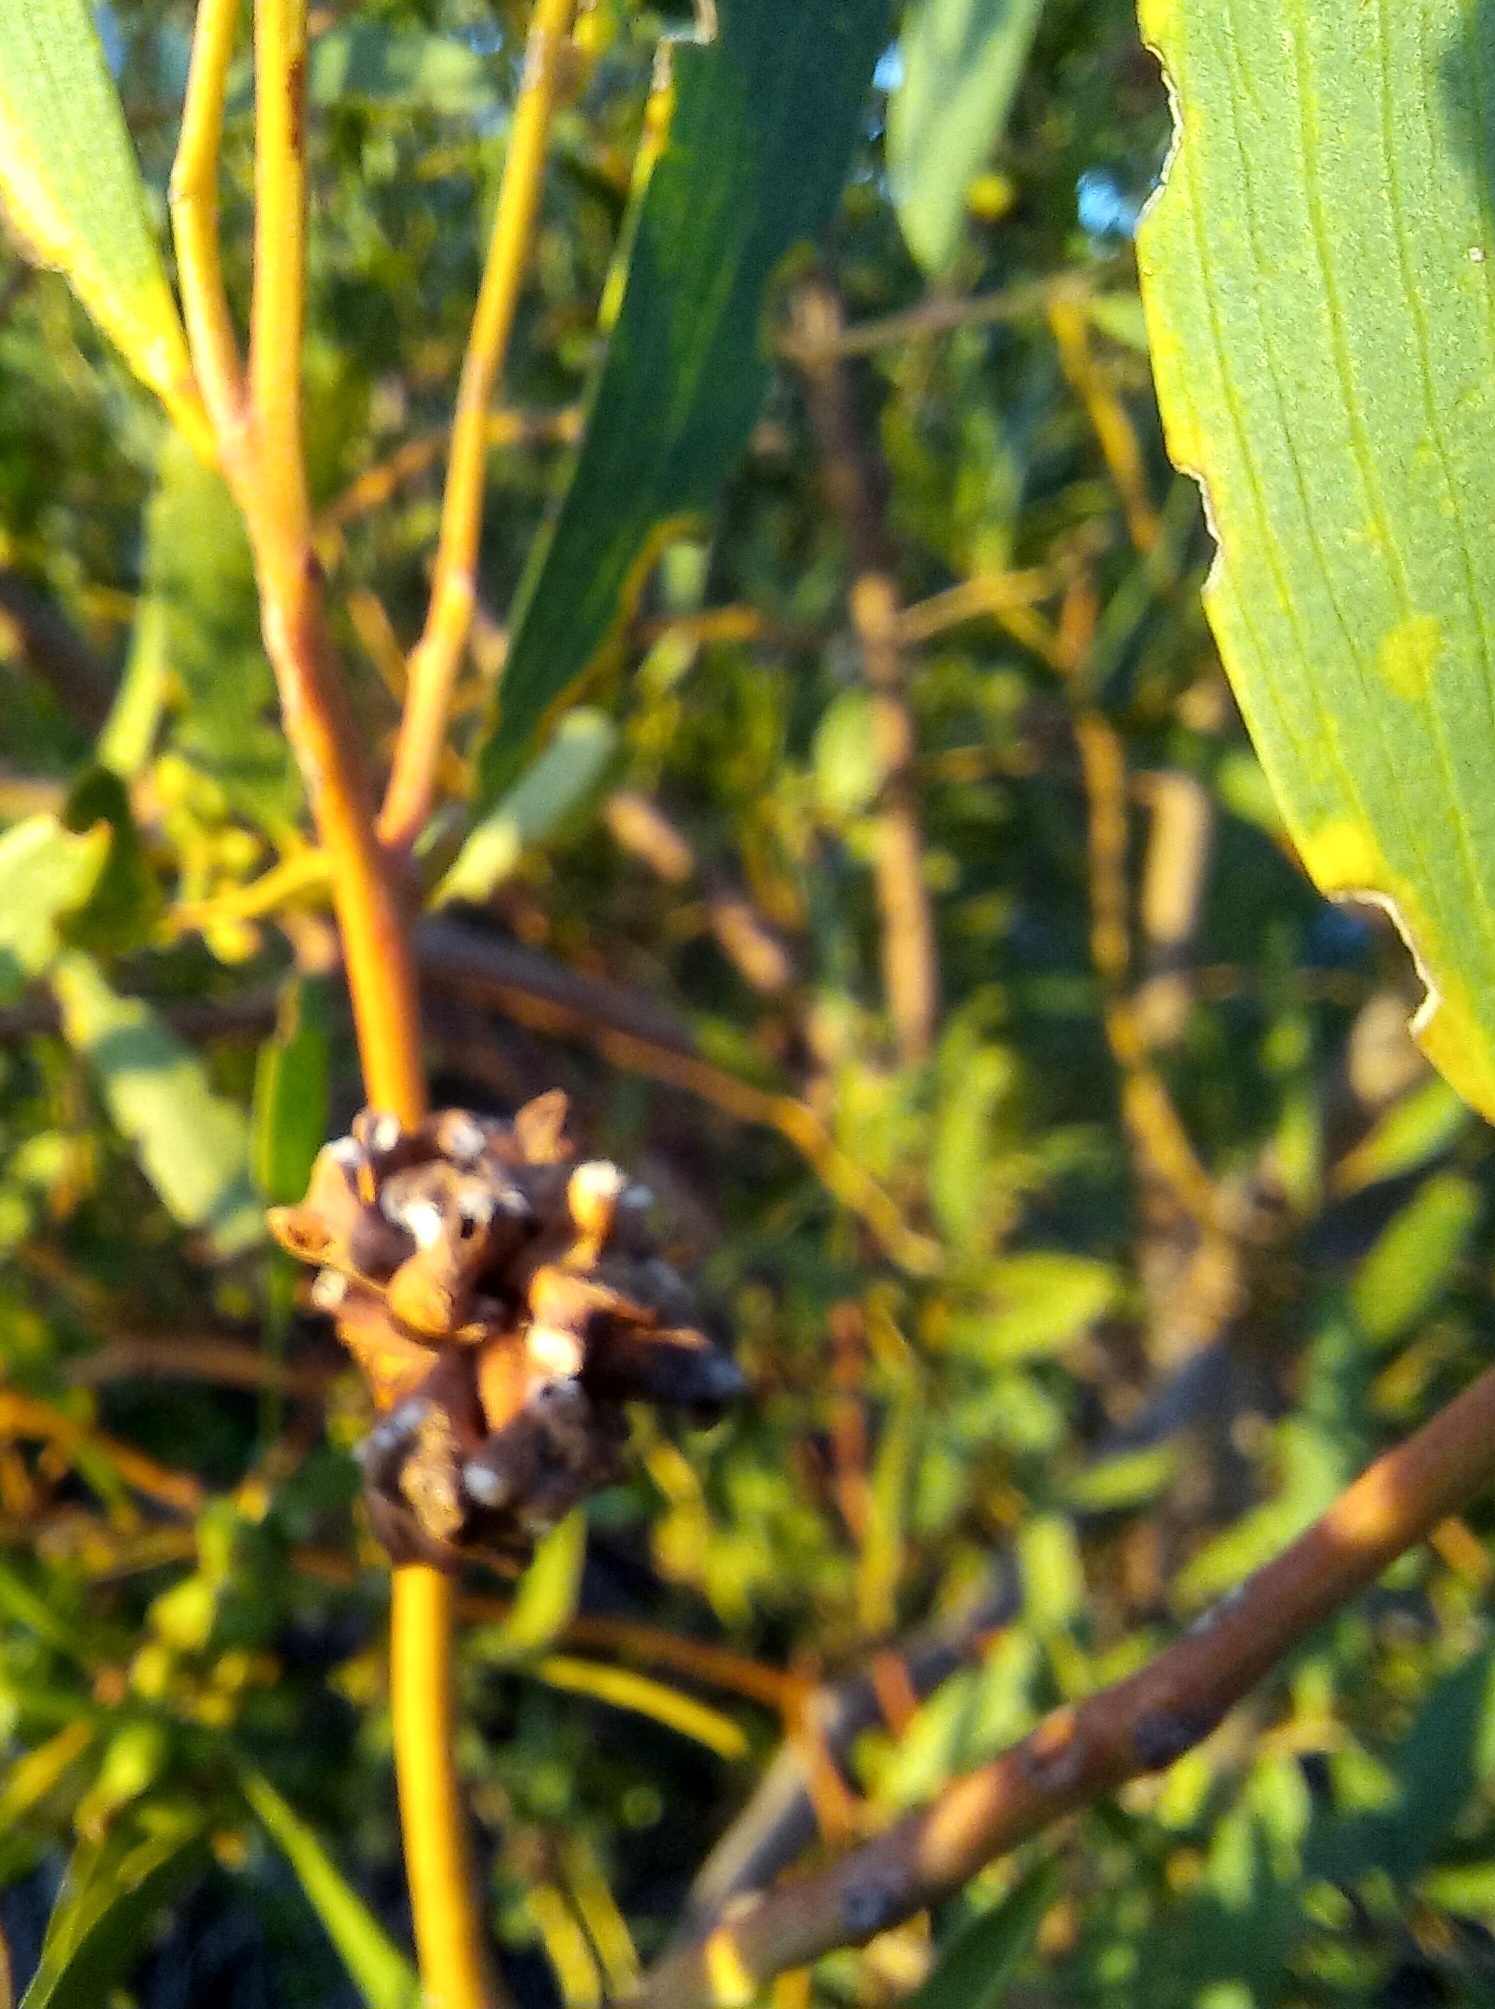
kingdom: Plantae
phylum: Tracheophyta
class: Magnoliopsida
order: Fabales
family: Fabaceae
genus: Acacia
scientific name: Acacia cyclops
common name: Coastal wattle
